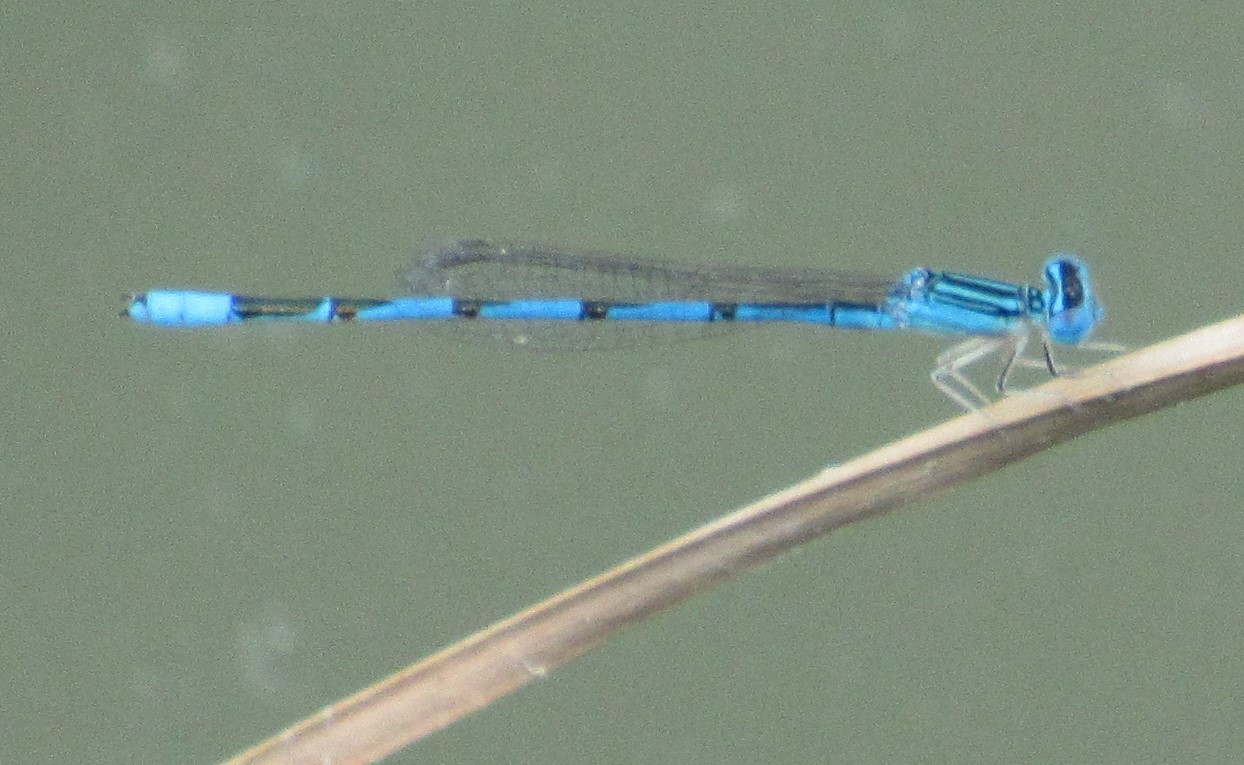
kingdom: Animalia
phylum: Arthropoda
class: Insecta
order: Odonata
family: Coenagrionidae
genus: Enallagma
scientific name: Enallagma basidens
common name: Double-striped bluet
